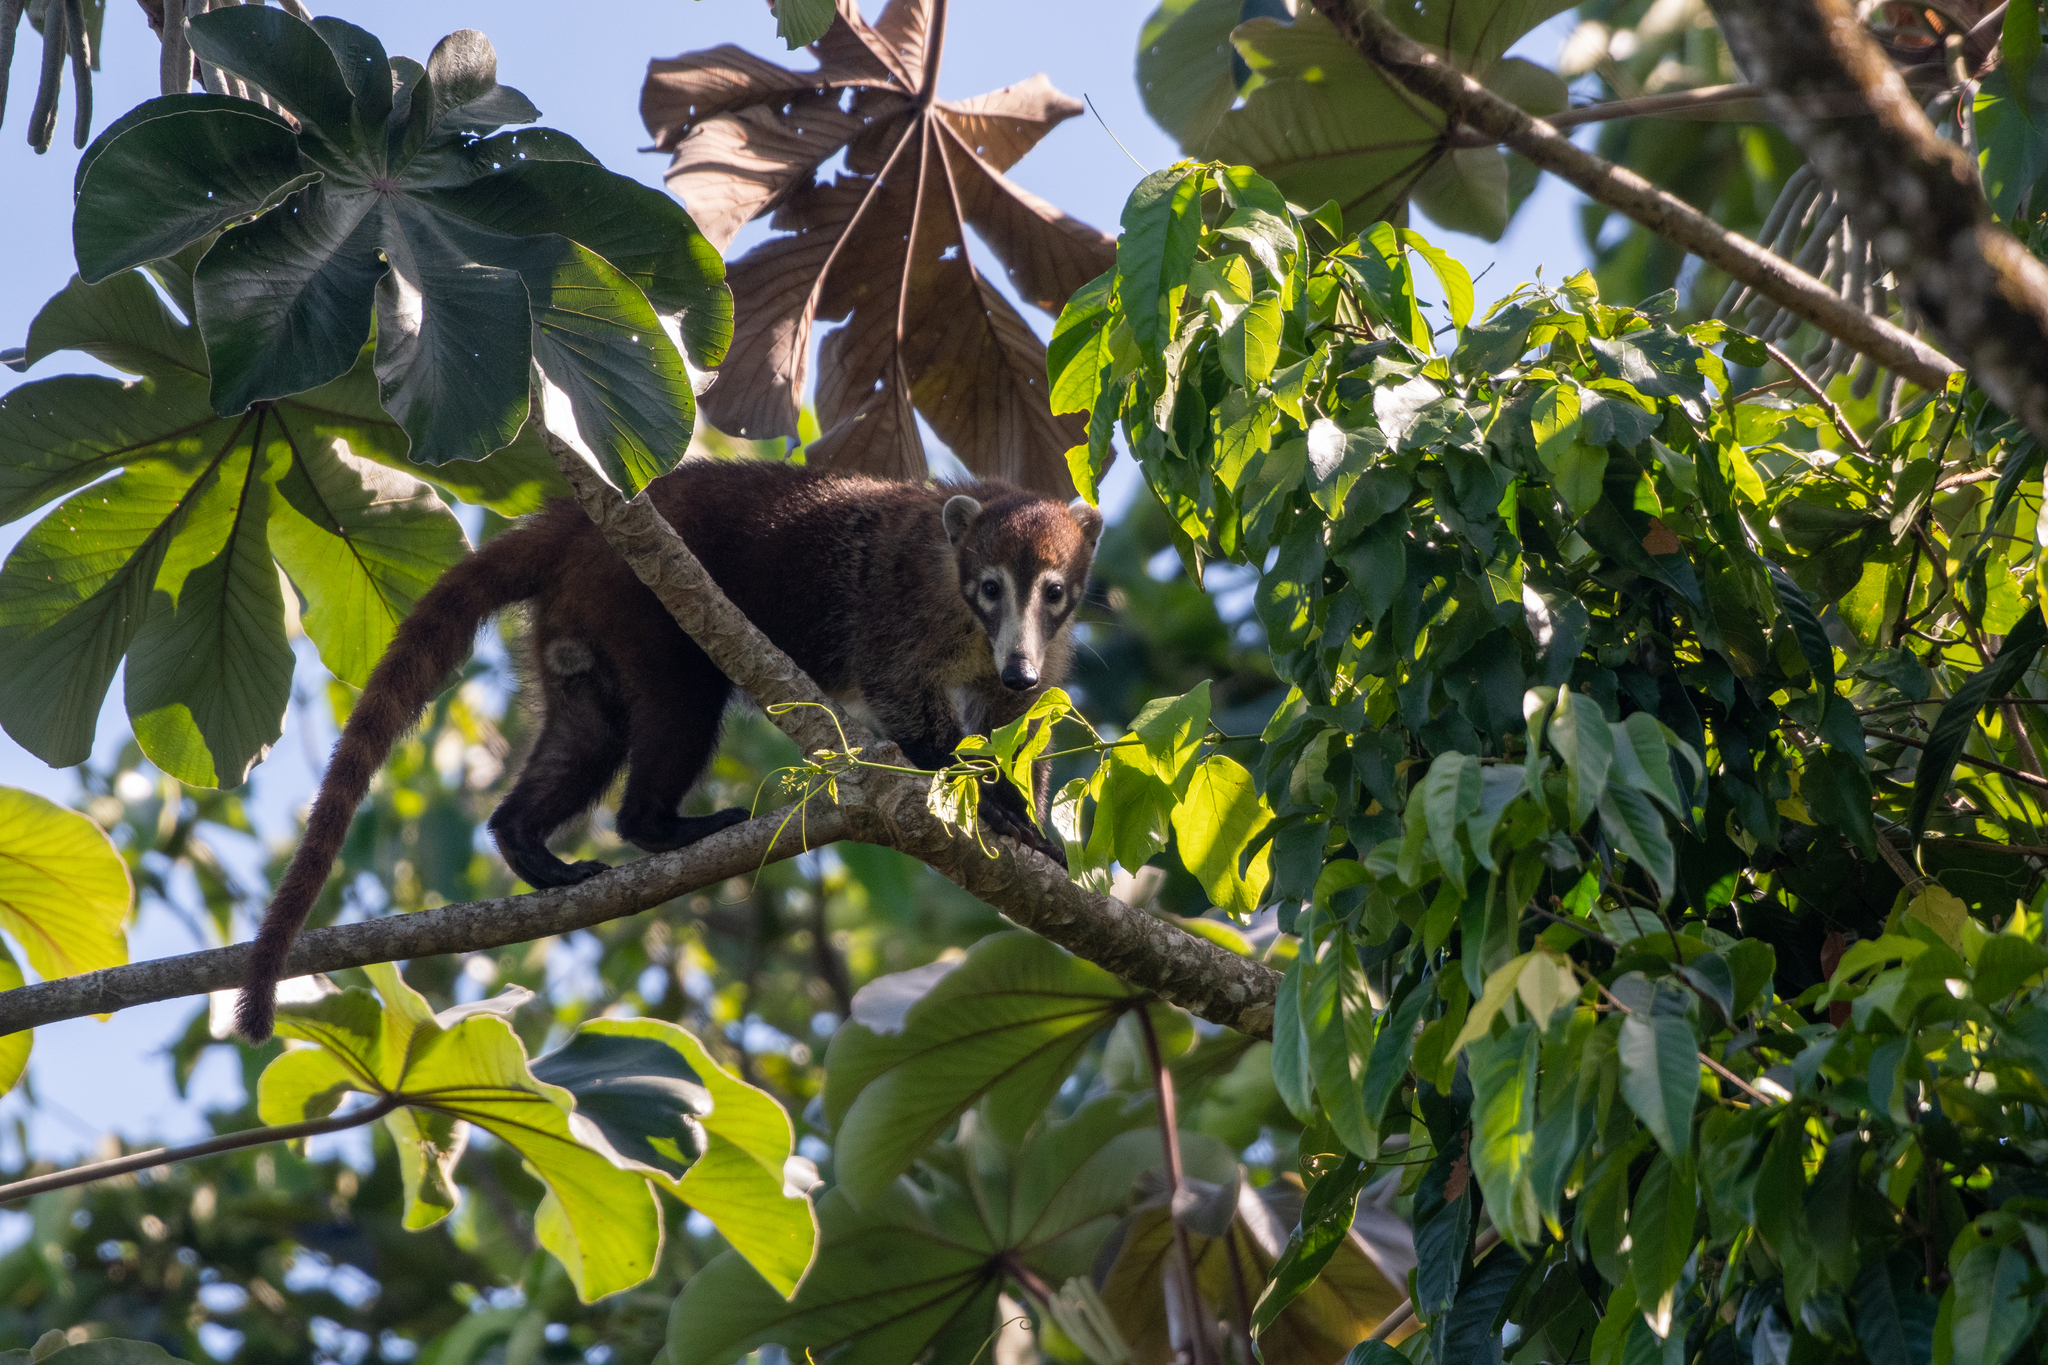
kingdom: Animalia
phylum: Chordata
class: Mammalia
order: Carnivora
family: Procyonidae
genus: Nasua
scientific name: Nasua narica
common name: White-nosed coati
